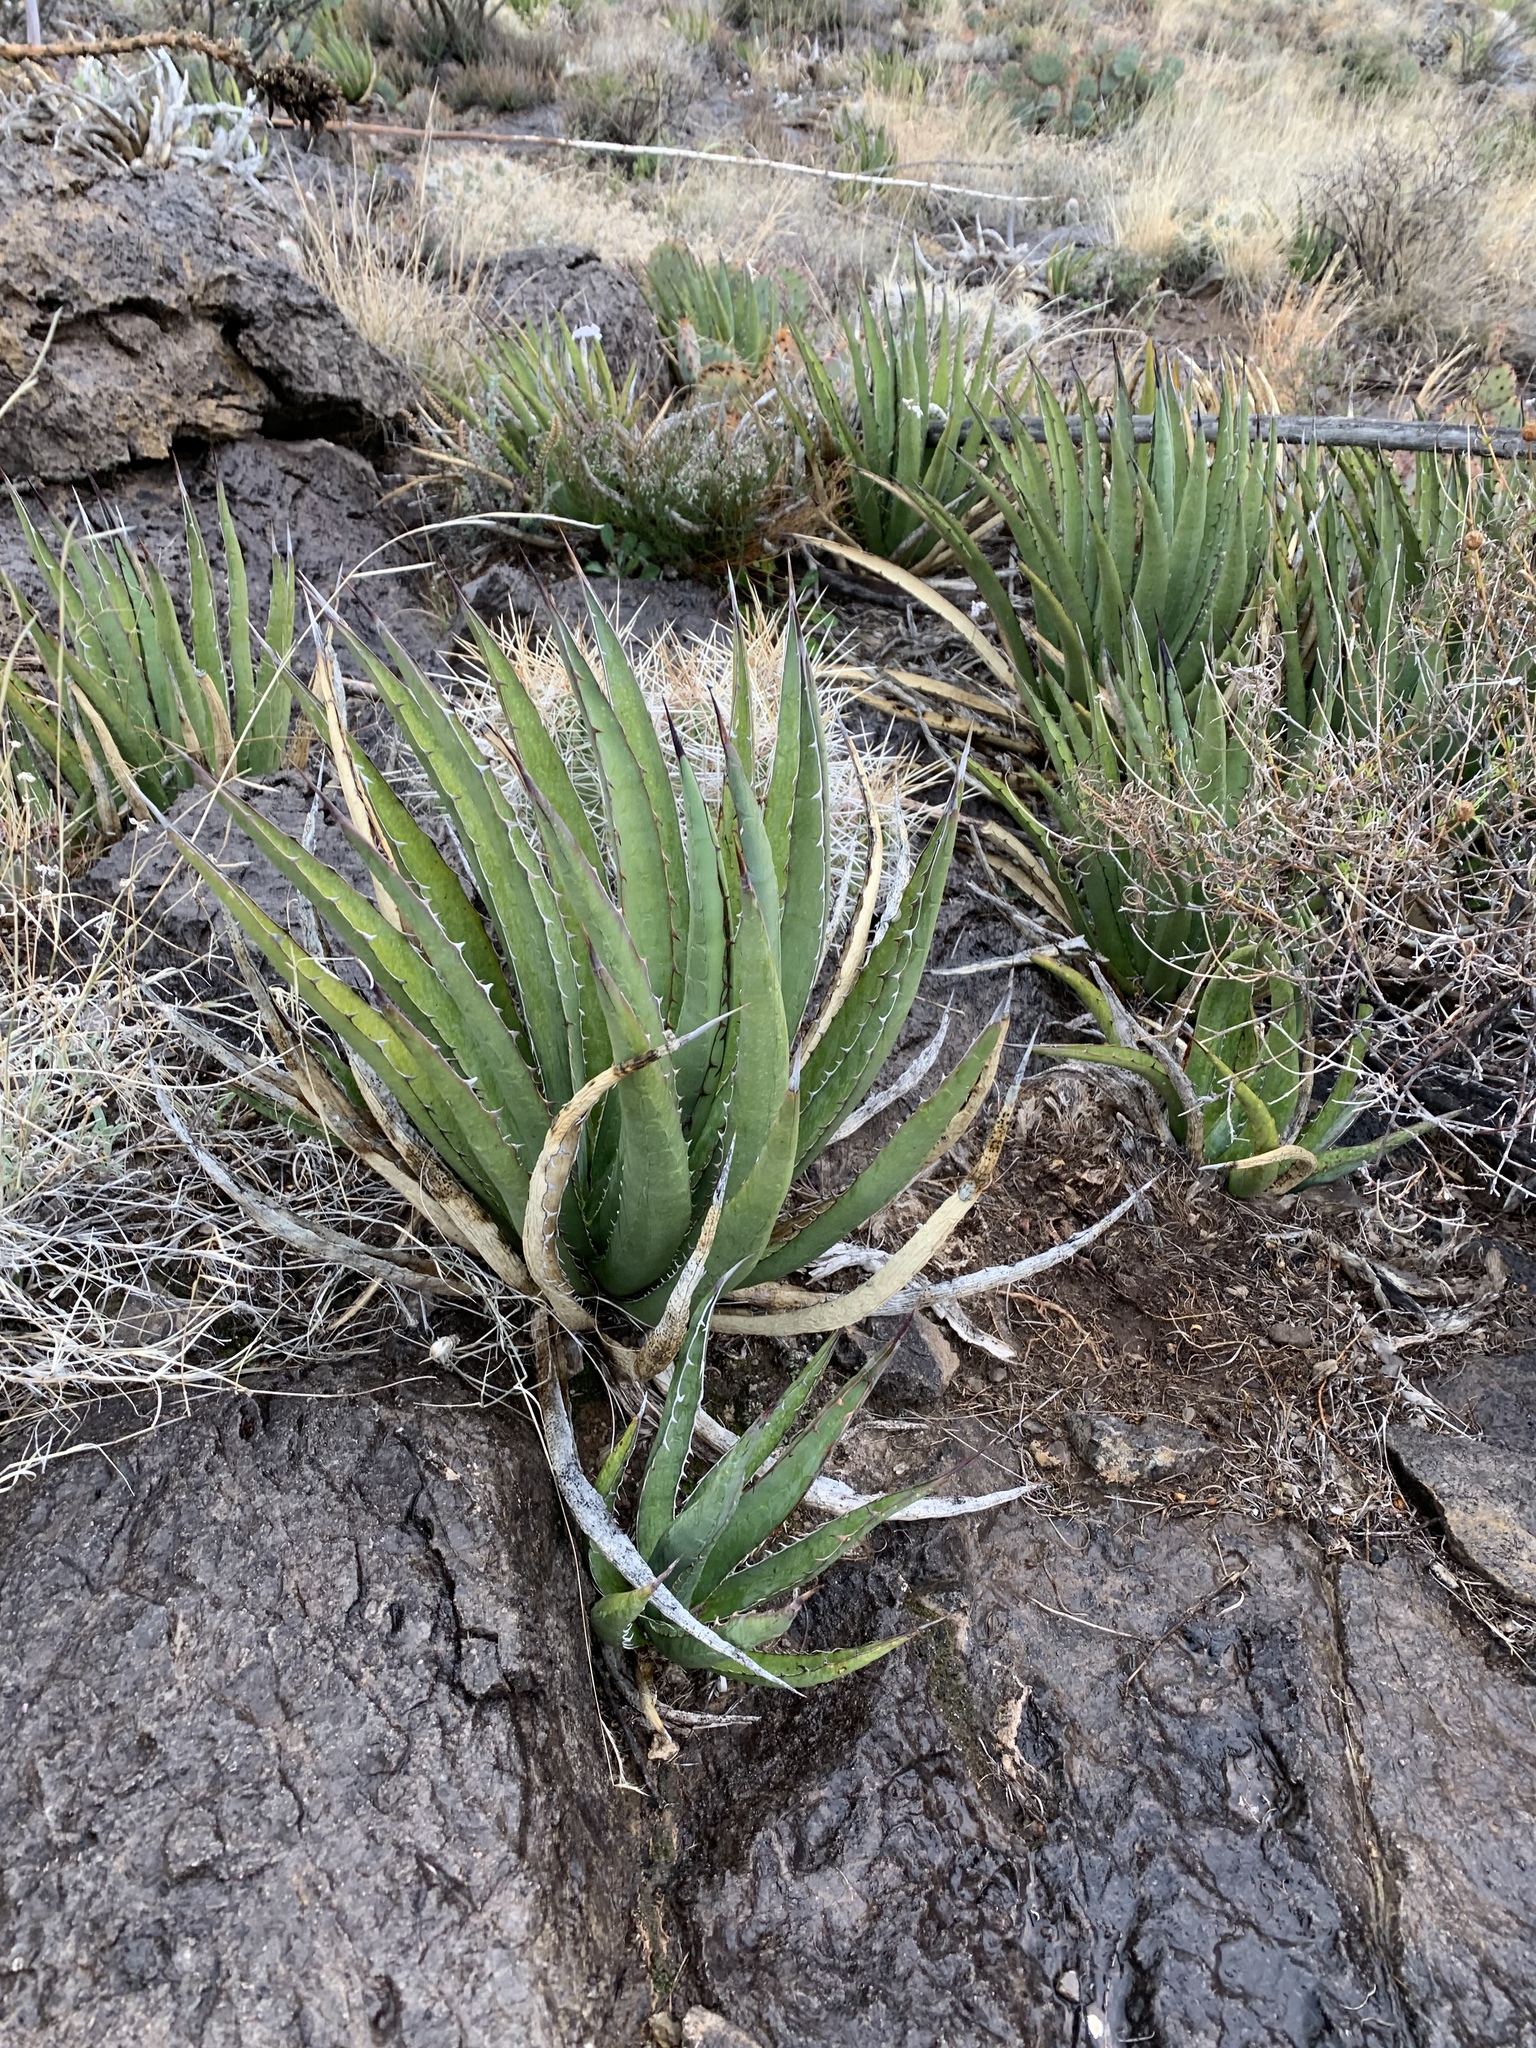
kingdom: Plantae
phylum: Tracheophyta
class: Liliopsida
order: Asparagales
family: Asparagaceae
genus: Agave
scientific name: Agave lechuguilla
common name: Lecheguilla agave
